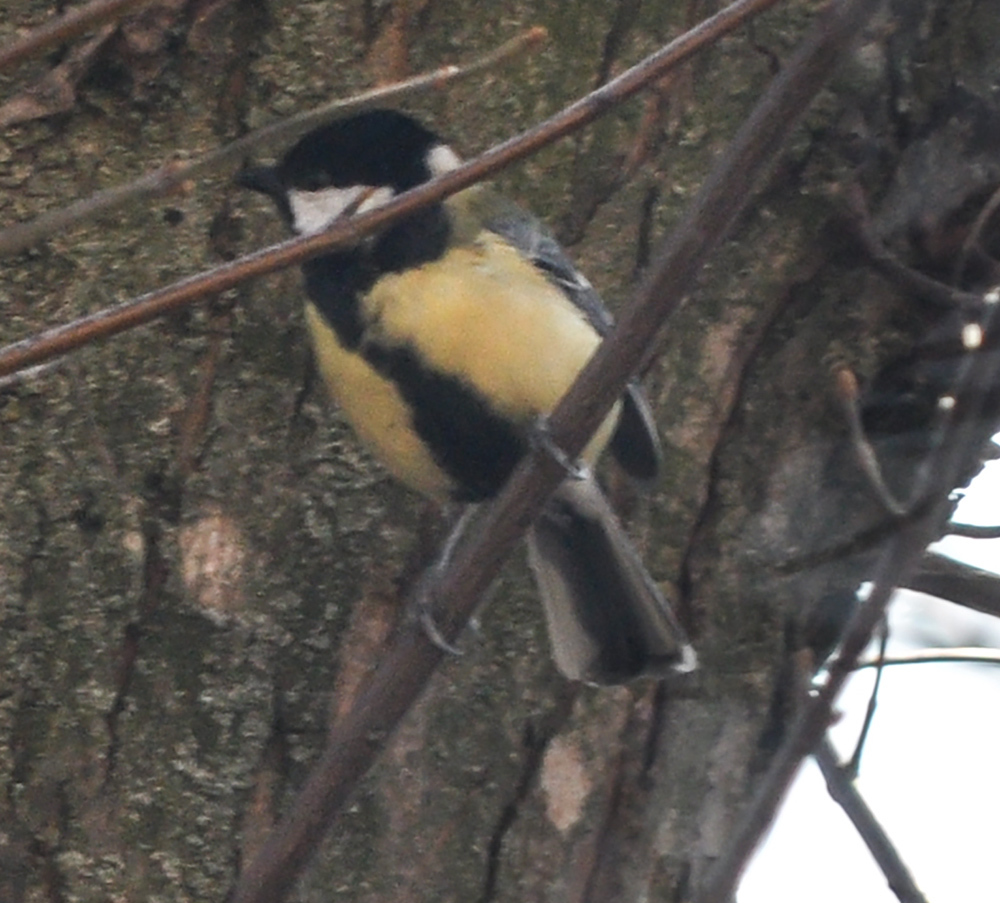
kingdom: Animalia
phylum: Chordata
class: Aves
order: Passeriformes
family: Paridae
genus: Parus
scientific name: Parus major
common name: Great tit
